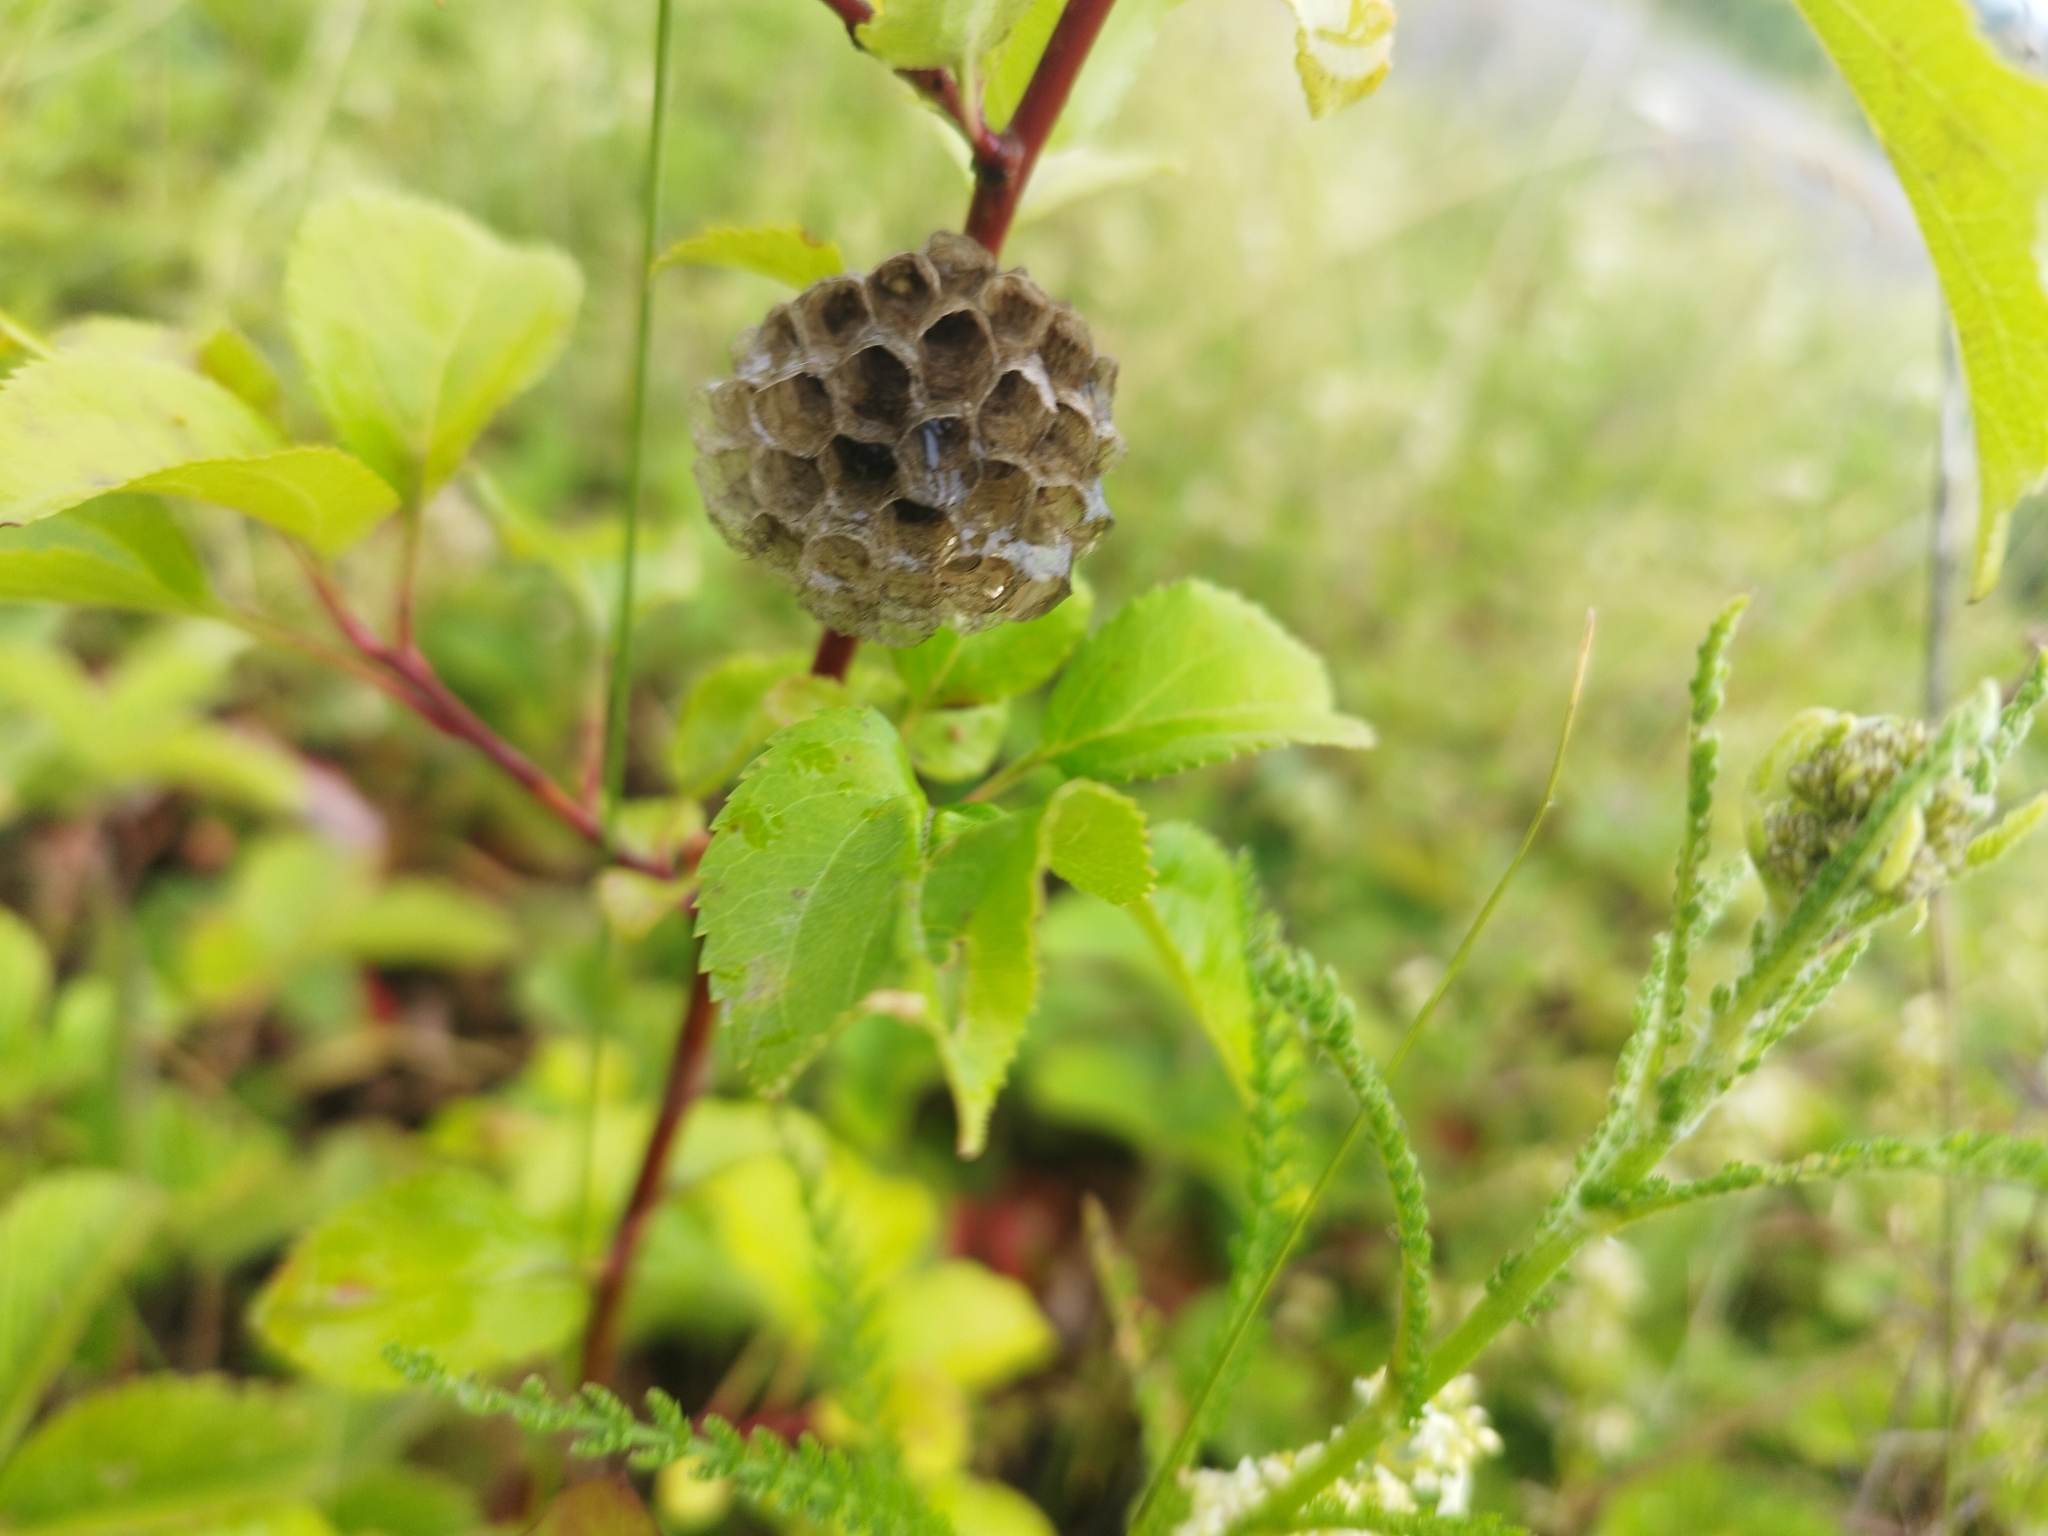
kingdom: Animalia
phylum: Arthropoda
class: Insecta
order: Hymenoptera
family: Eumenidae
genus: Polistes
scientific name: Polistes nimpha
